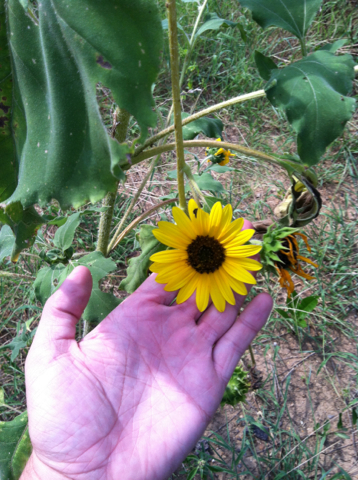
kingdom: Plantae
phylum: Tracheophyta
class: Magnoliopsida
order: Asterales
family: Asteraceae
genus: Helianthus
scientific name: Helianthus annuus
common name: Sunflower
